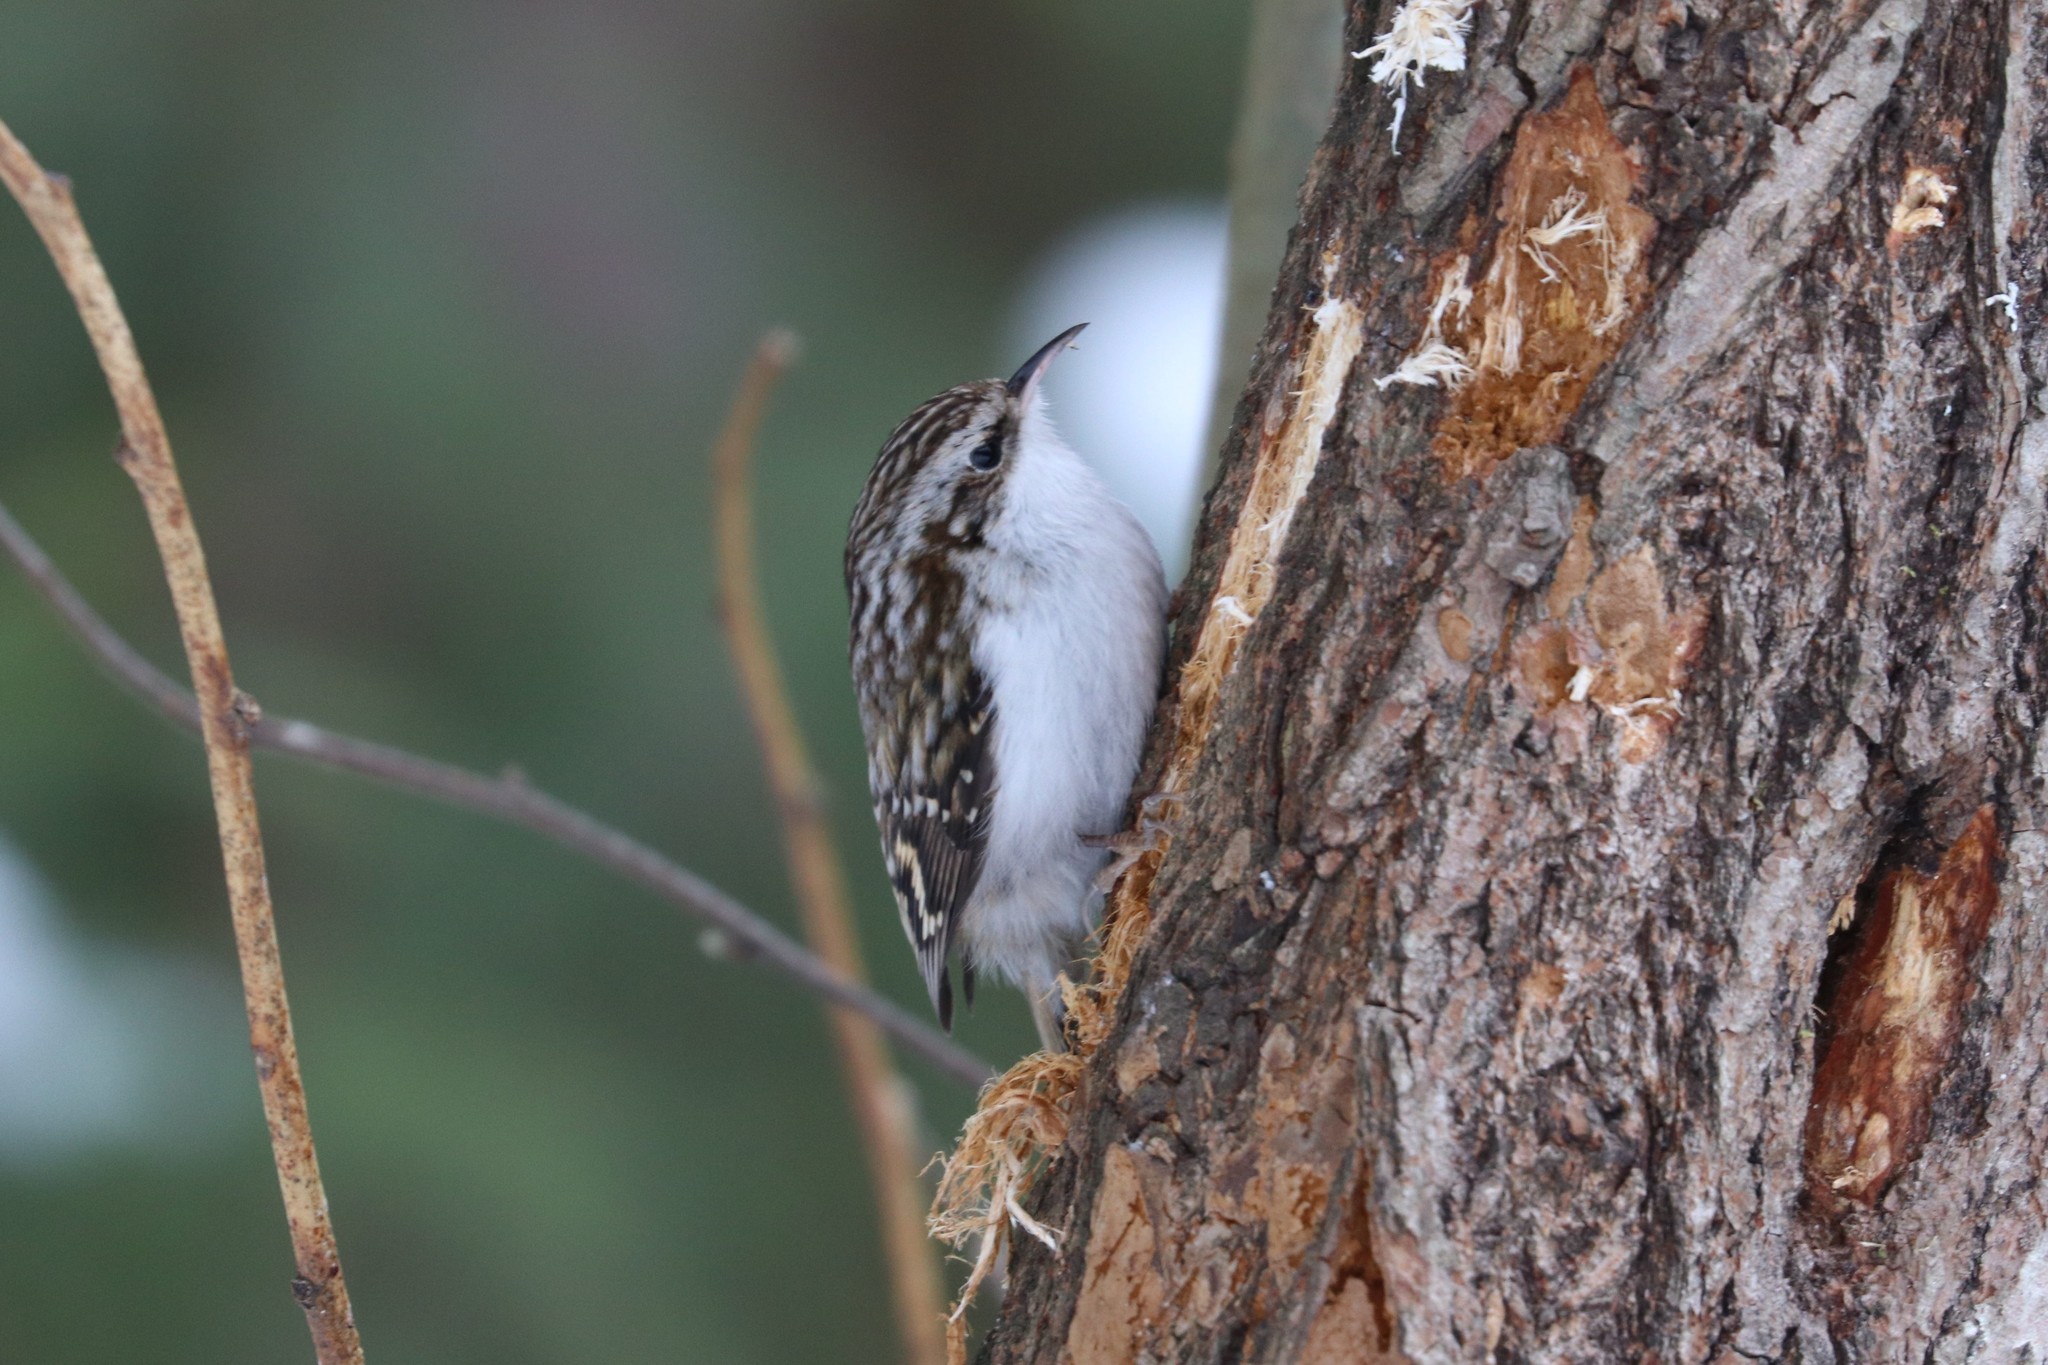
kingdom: Animalia
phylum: Chordata
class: Aves
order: Passeriformes
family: Certhiidae
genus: Certhia
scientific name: Certhia familiaris
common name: Eurasian treecreeper
